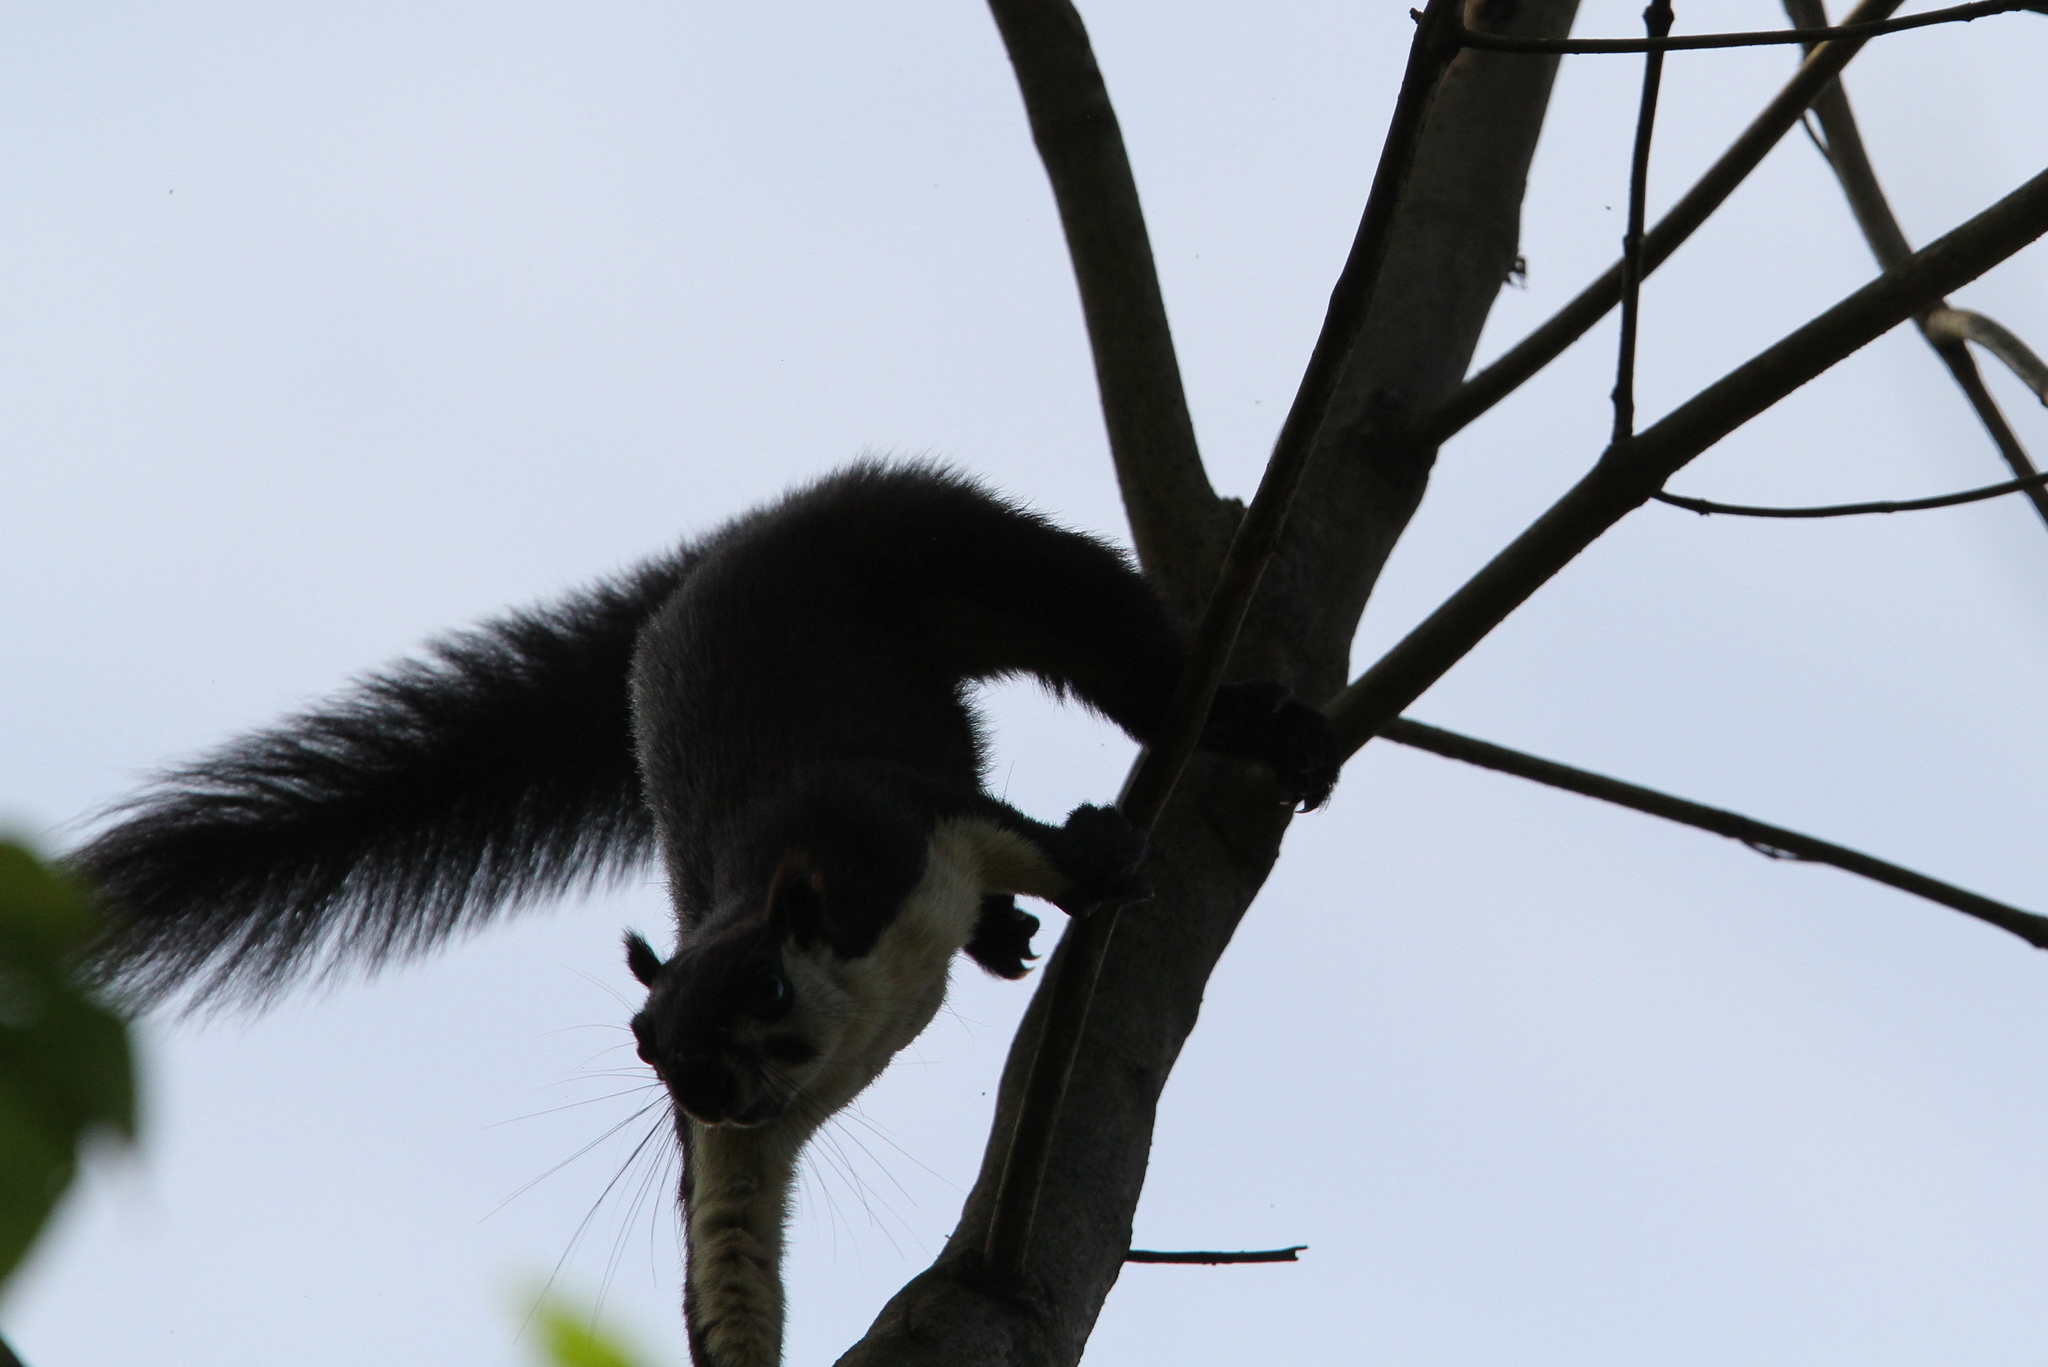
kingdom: Animalia
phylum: Chordata
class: Mammalia
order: Rodentia
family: Sciuridae
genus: Ratufa
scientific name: Ratufa bicolor
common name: Black giant squirrel
